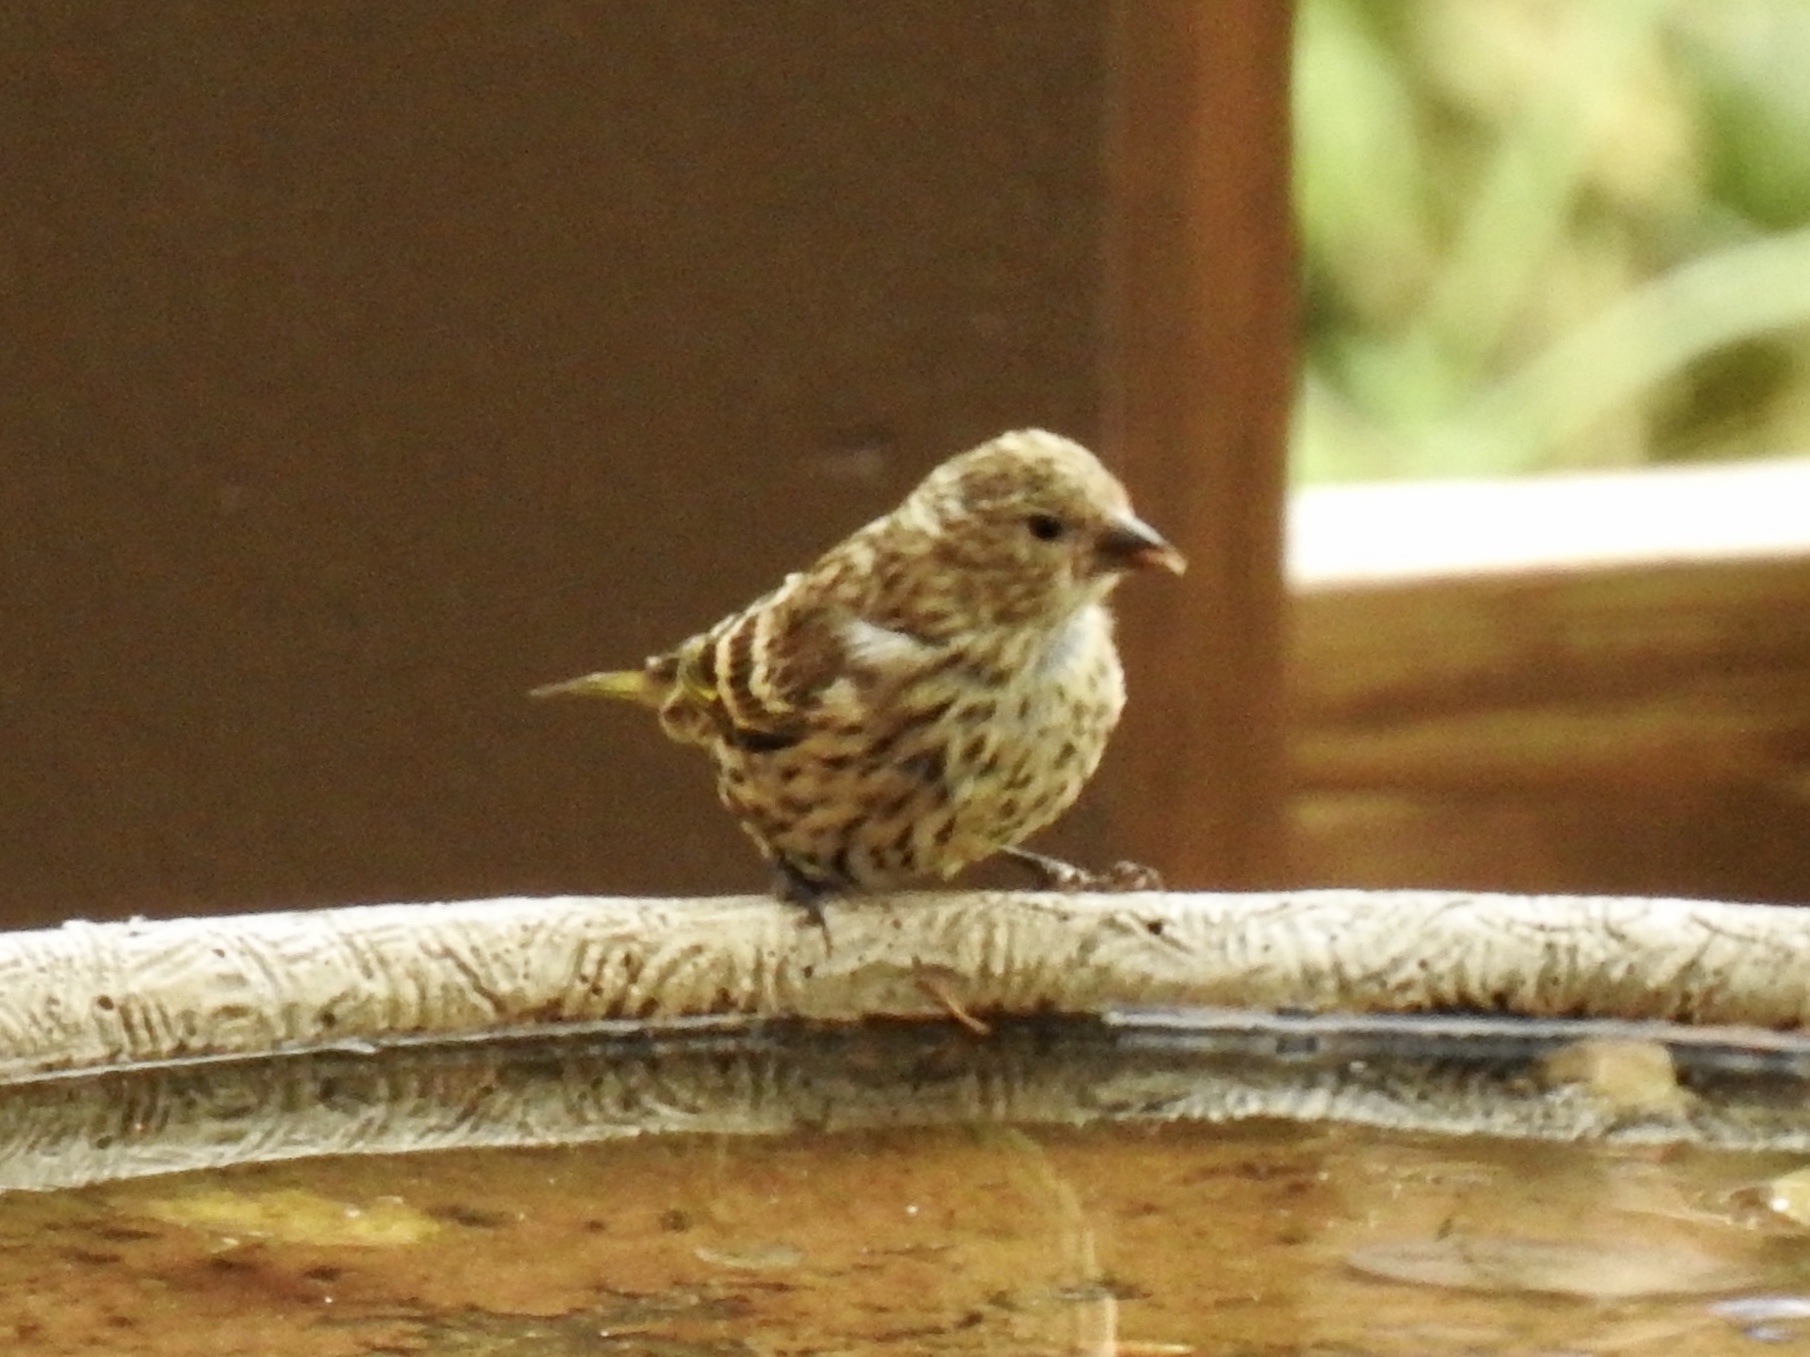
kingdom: Animalia
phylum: Chordata
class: Aves
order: Passeriformes
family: Fringillidae
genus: Spinus
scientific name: Spinus pinus
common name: Pine siskin
